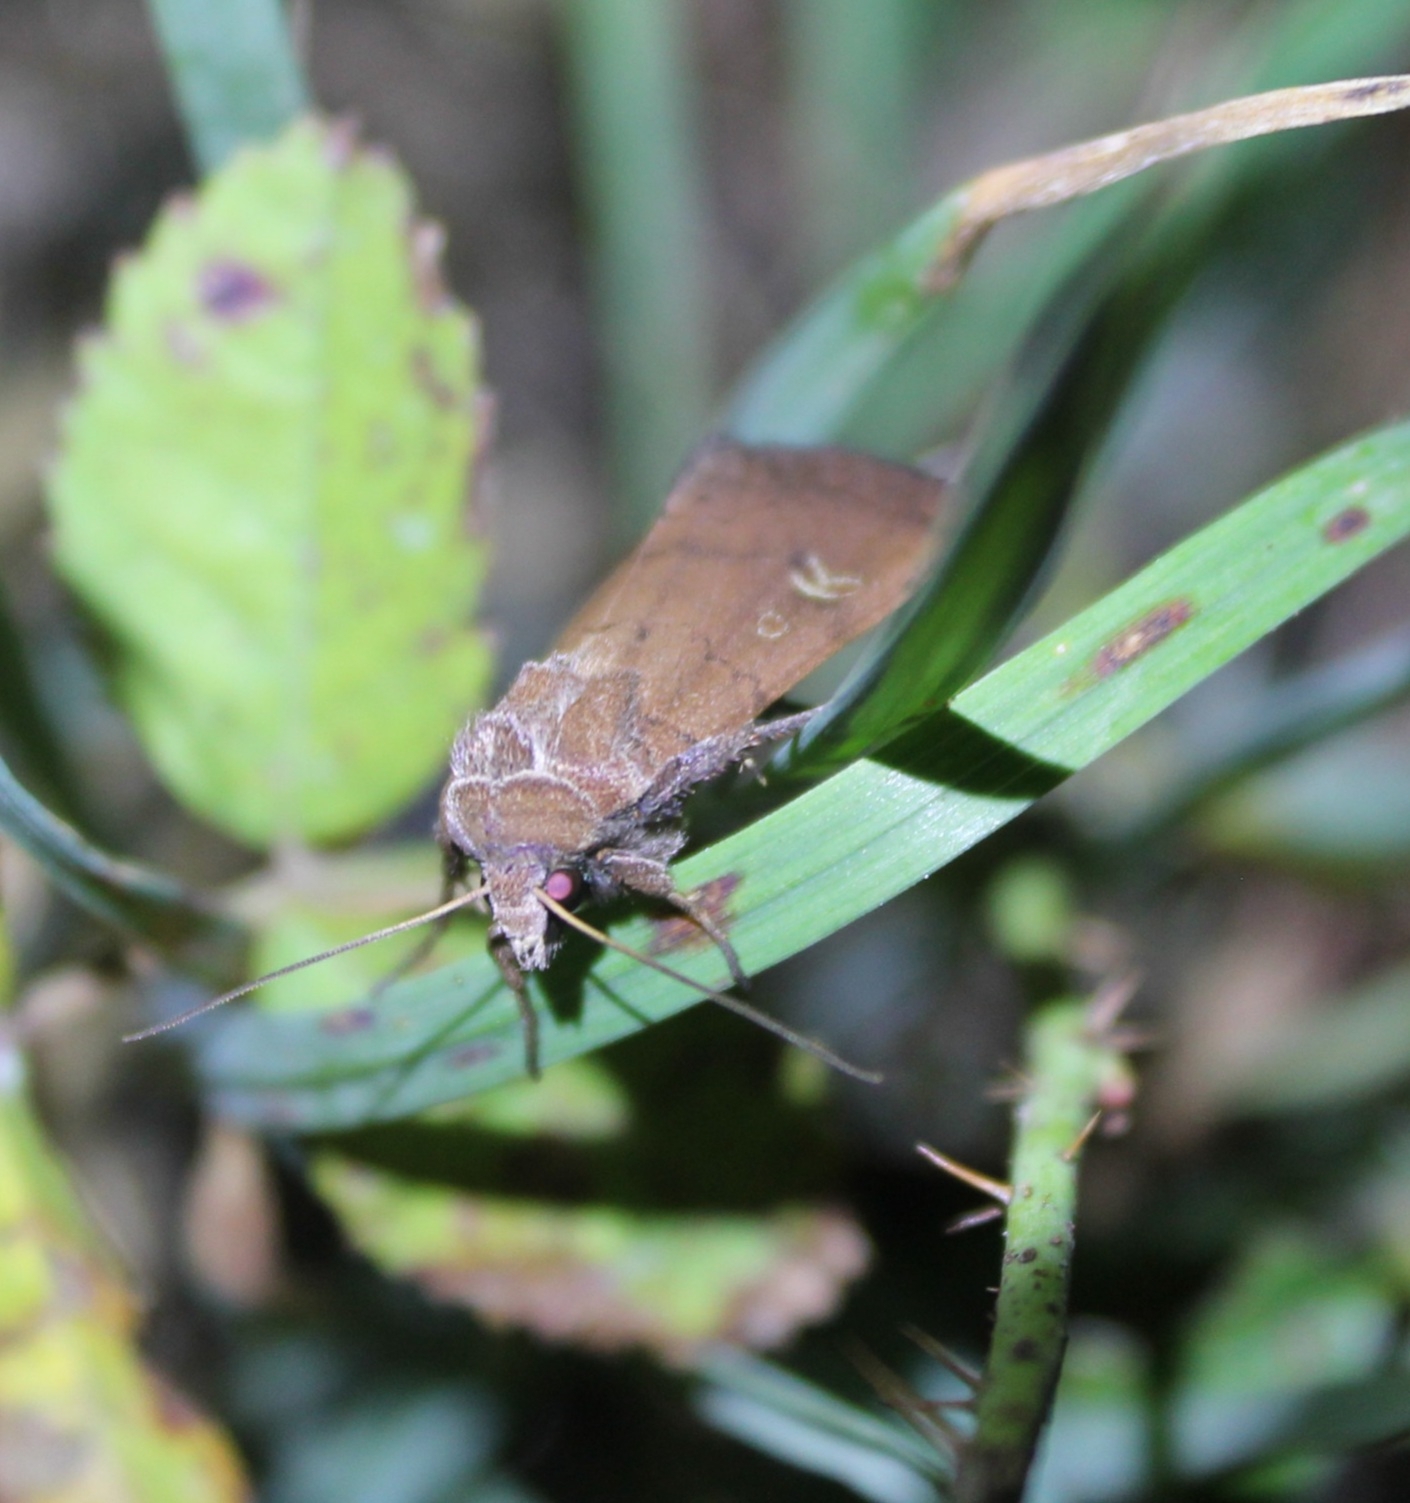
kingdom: Animalia
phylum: Arthropoda
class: Insecta
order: Lepidoptera
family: Noctuidae
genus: Xestia
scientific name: Xestia xanthographa
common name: Square-spot rustic
